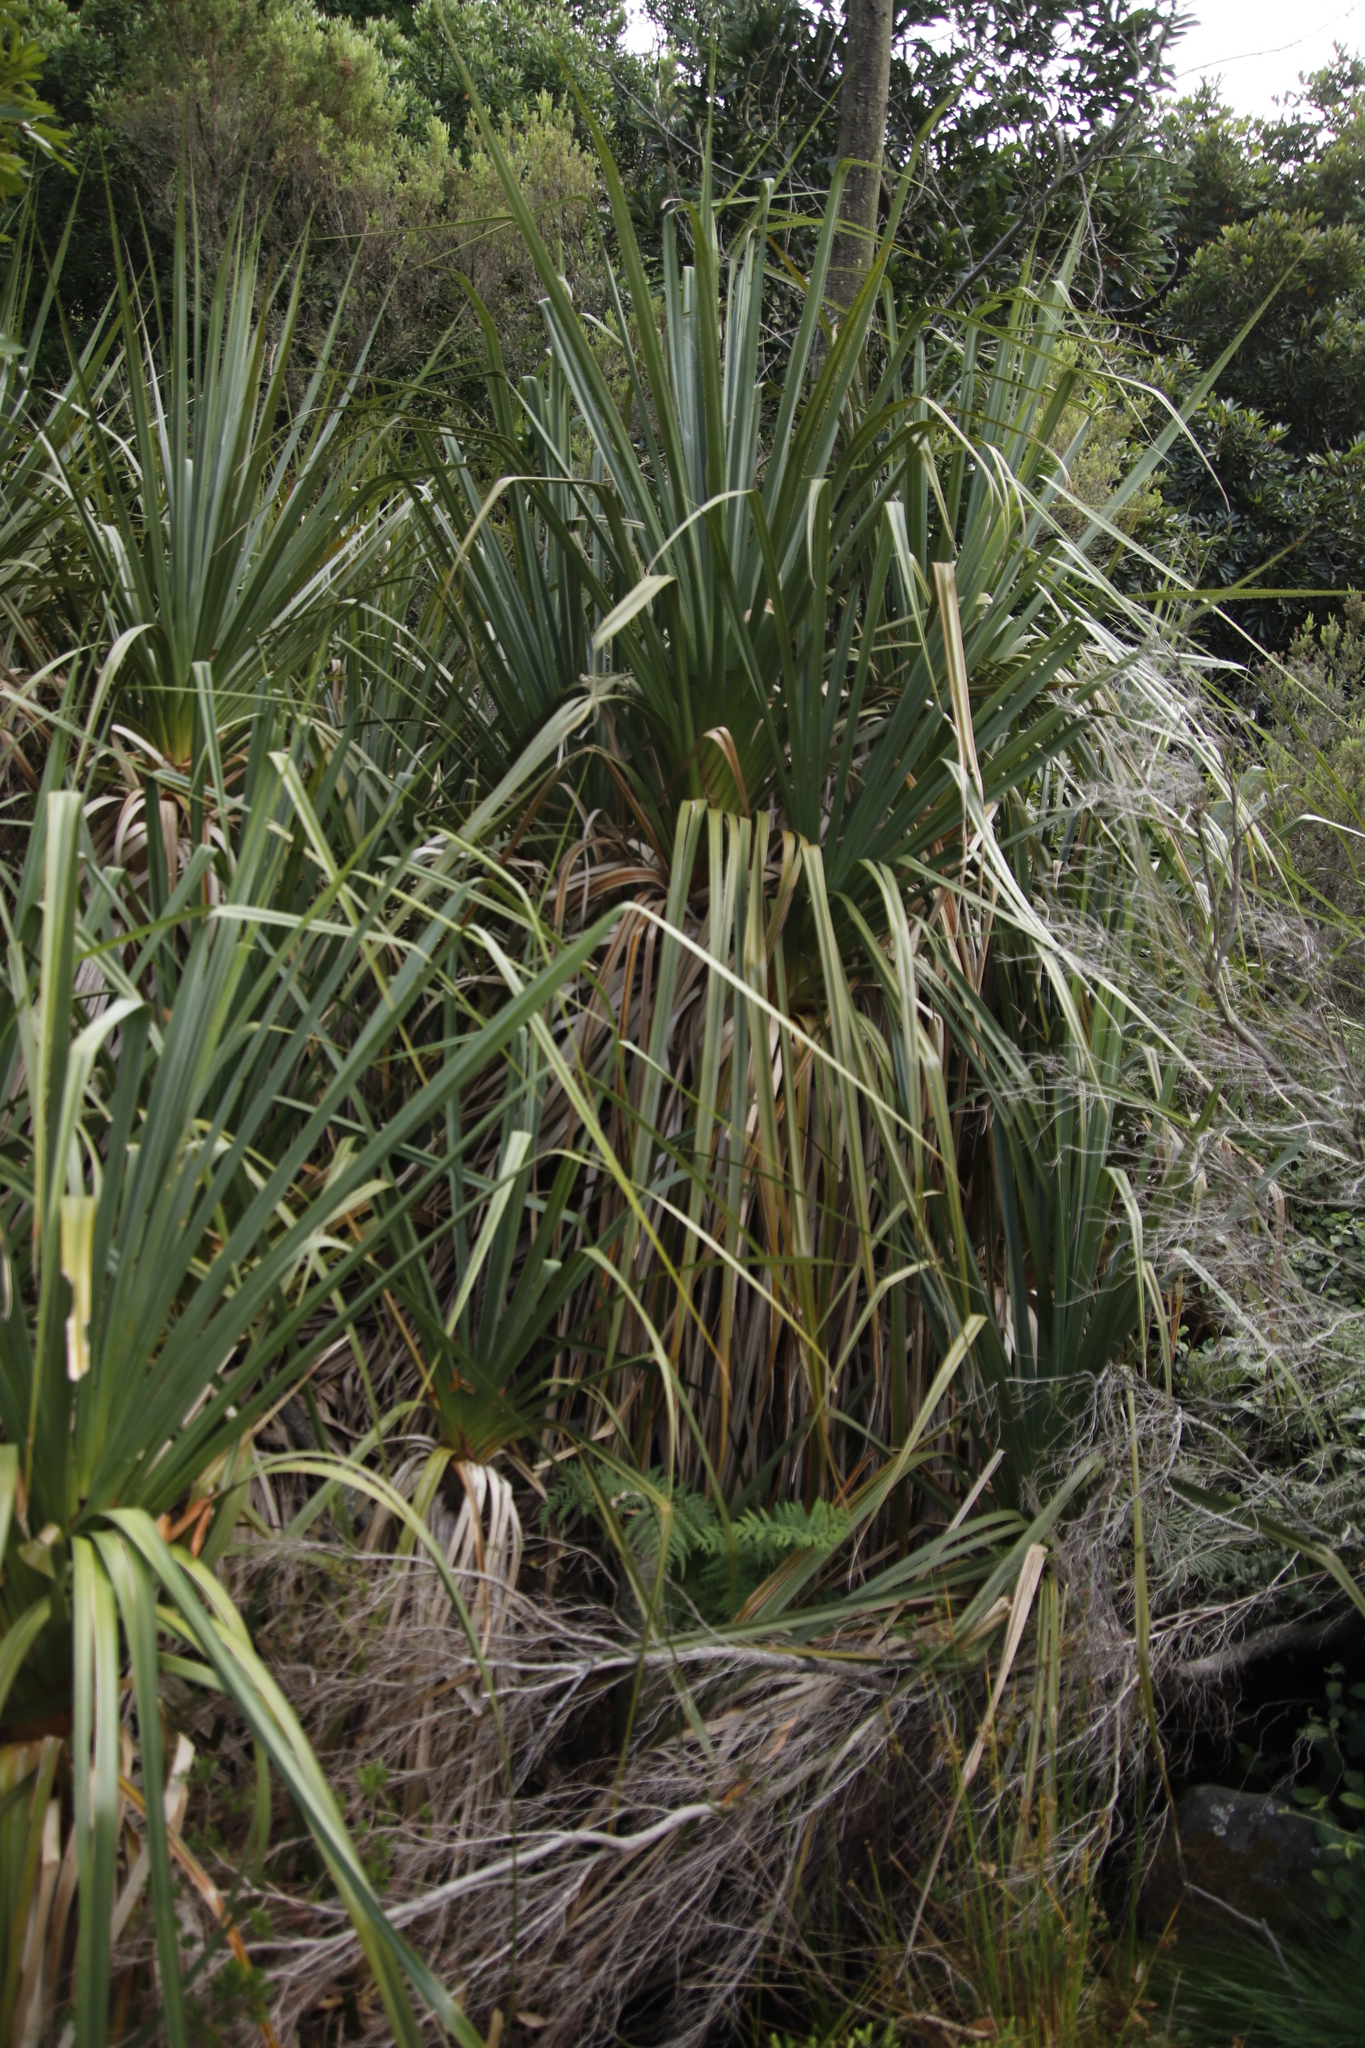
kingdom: Plantae
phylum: Tracheophyta
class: Liliopsida
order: Poales
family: Thurniaceae
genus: Prionium
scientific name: Prionium serratum
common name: Palmiet
